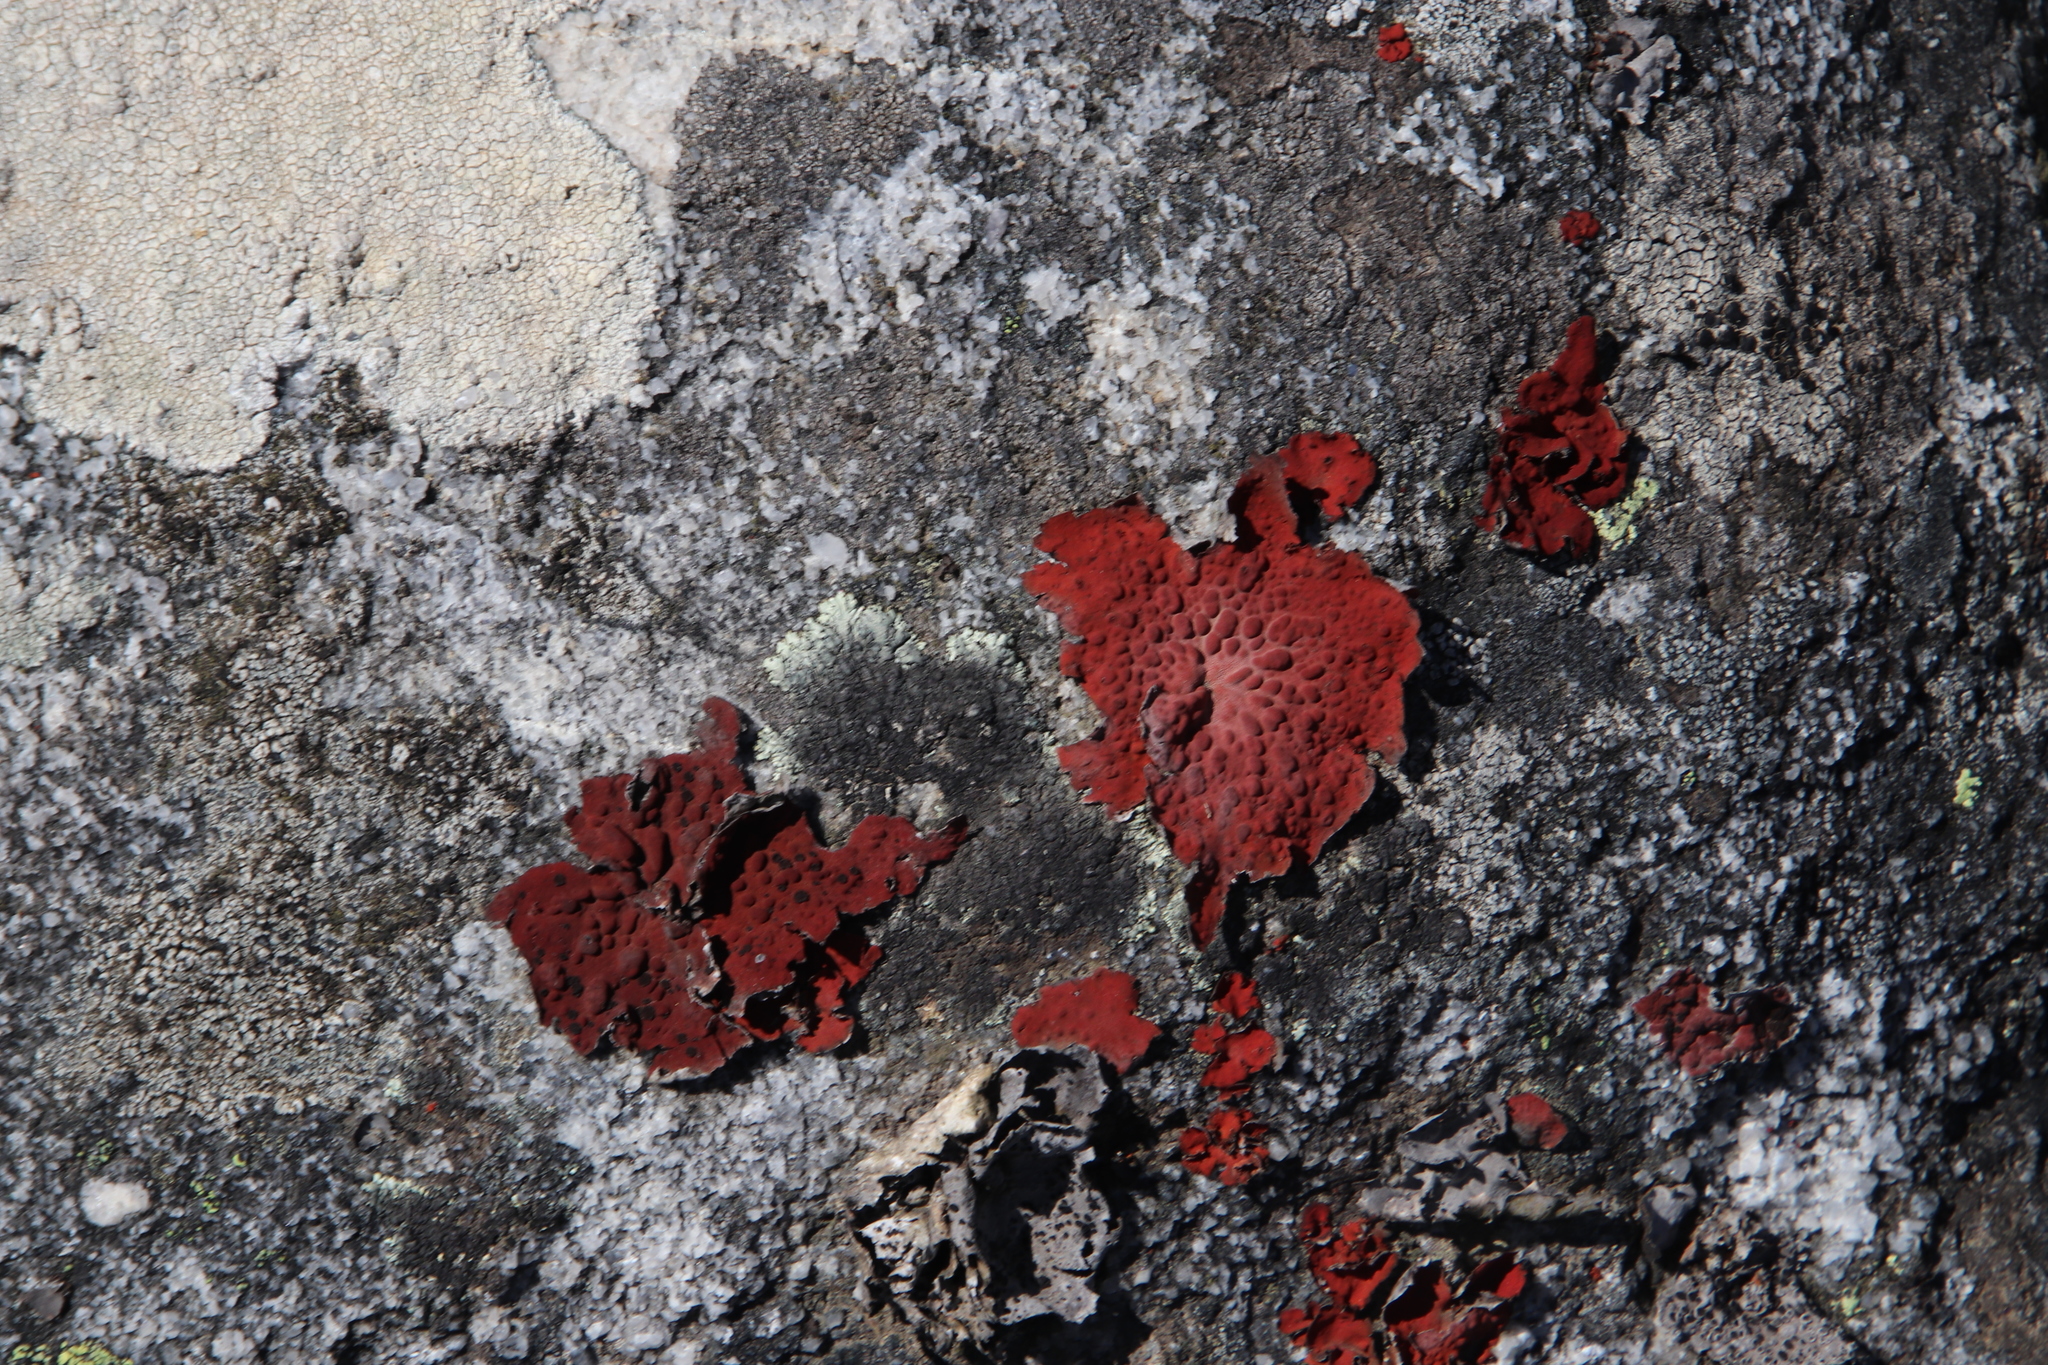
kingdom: Fungi
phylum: Ascomycota
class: Lecanoromycetes
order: Umbilicariales
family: Umbilicariaceae
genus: Lasallia
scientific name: Lasallia rubiginosa
